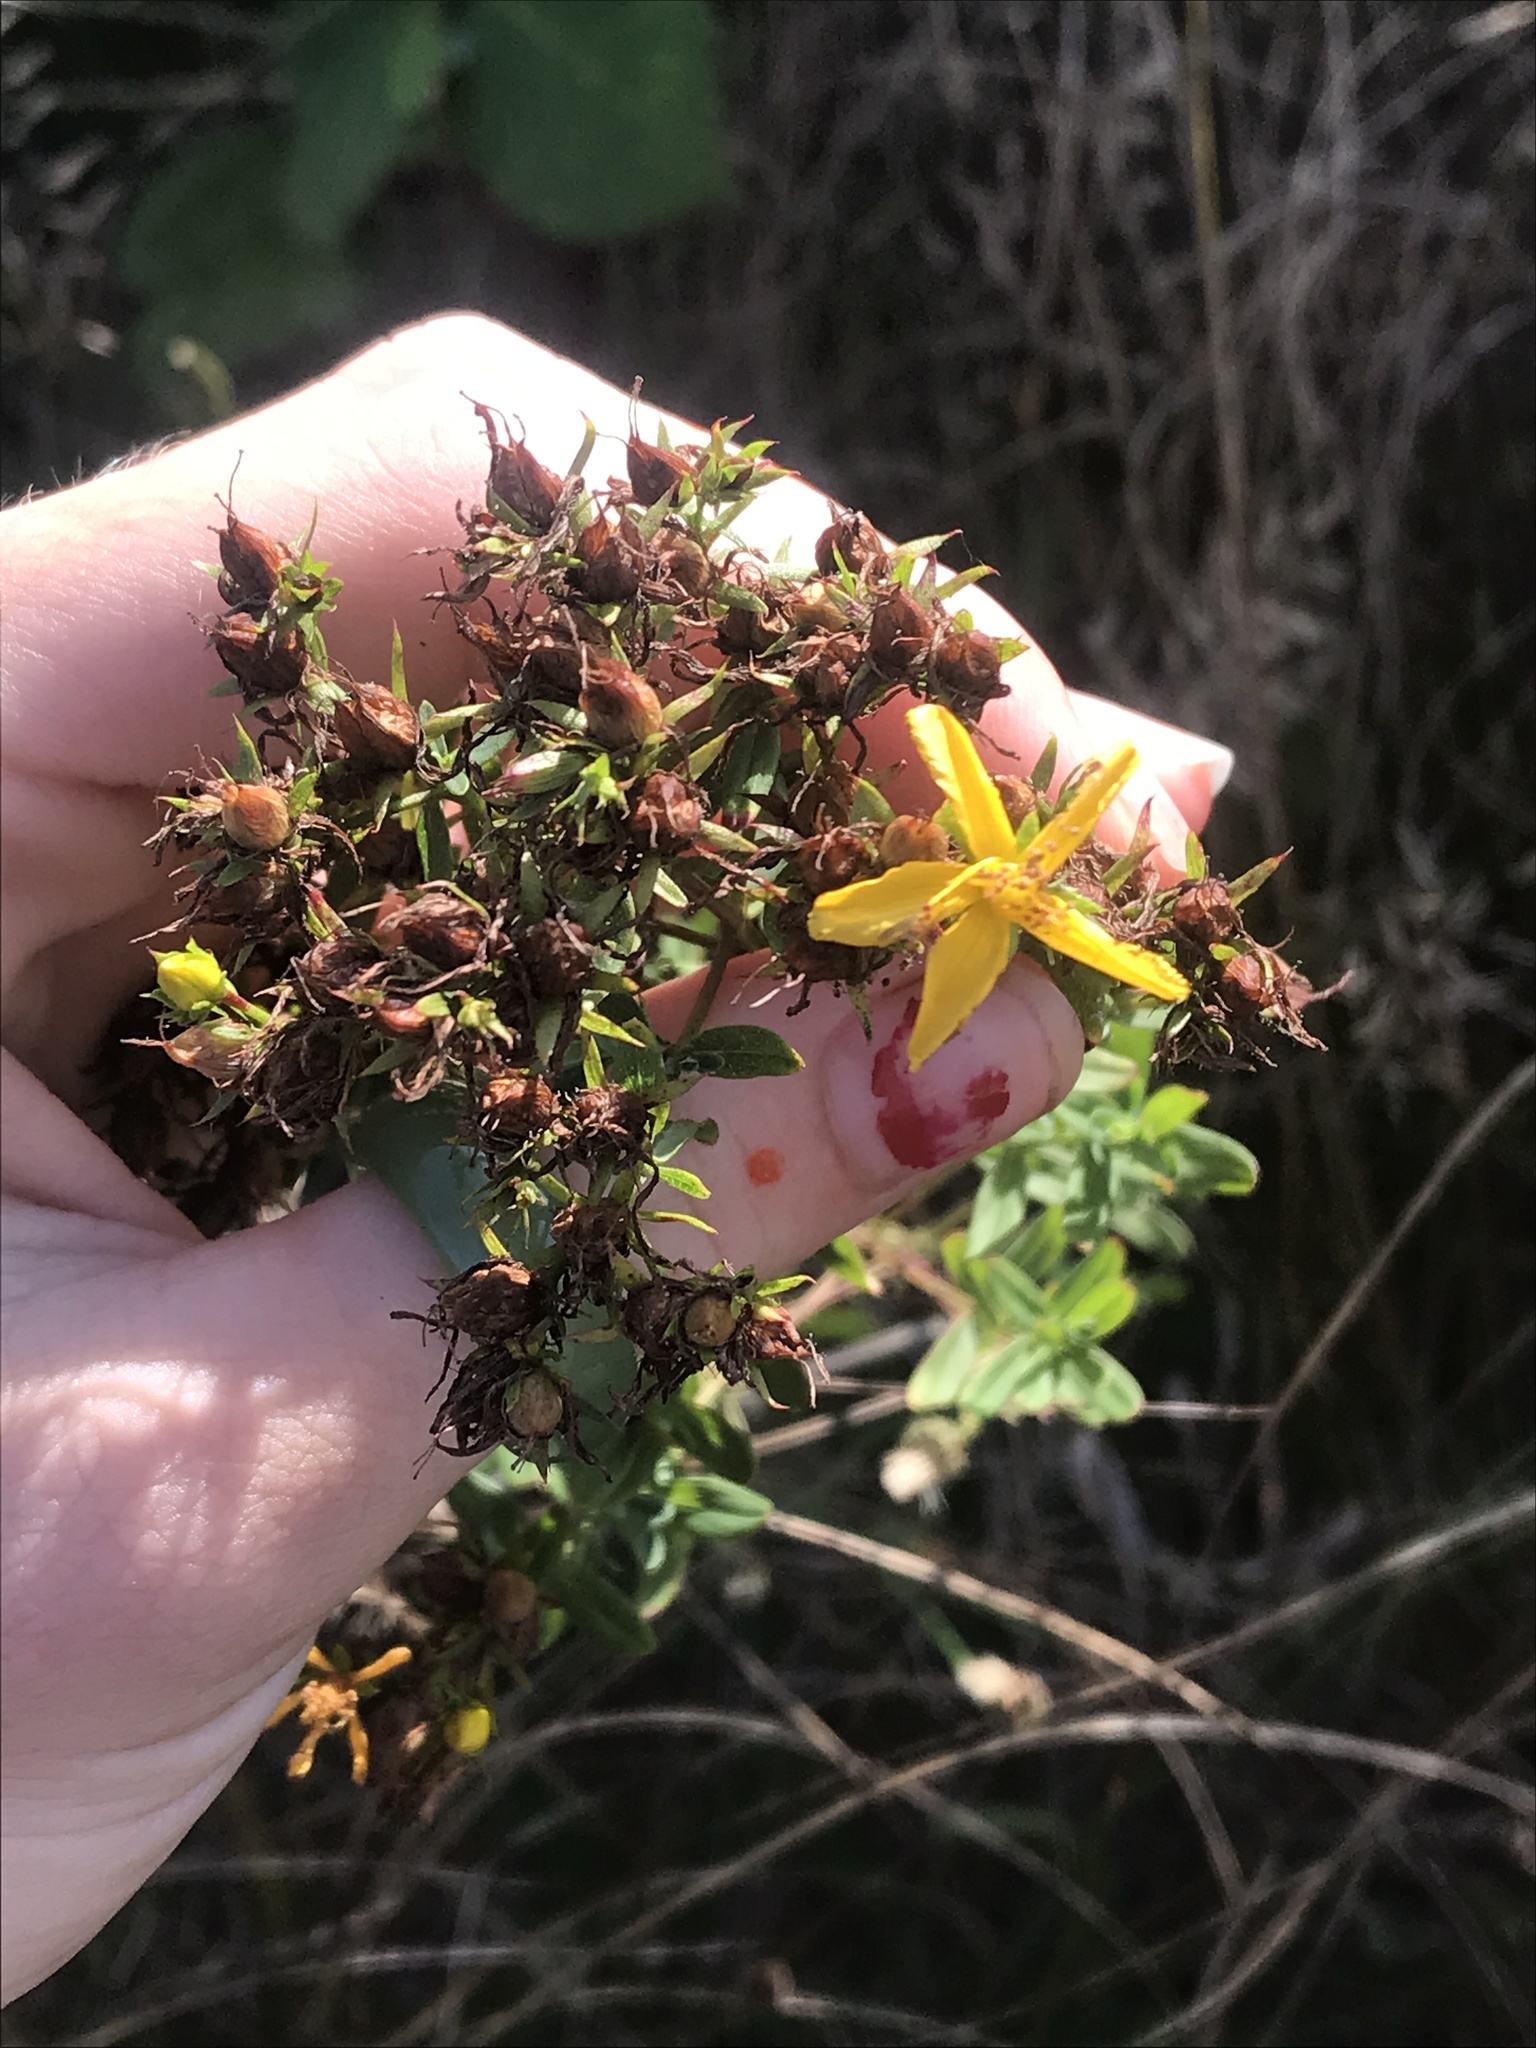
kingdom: Plantae
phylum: Tracheophyta
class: Magnoliopsida
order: Malpighiales
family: Hypericaceae
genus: Hypericum
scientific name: Hypericum perforatum
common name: Common st. johnswort
